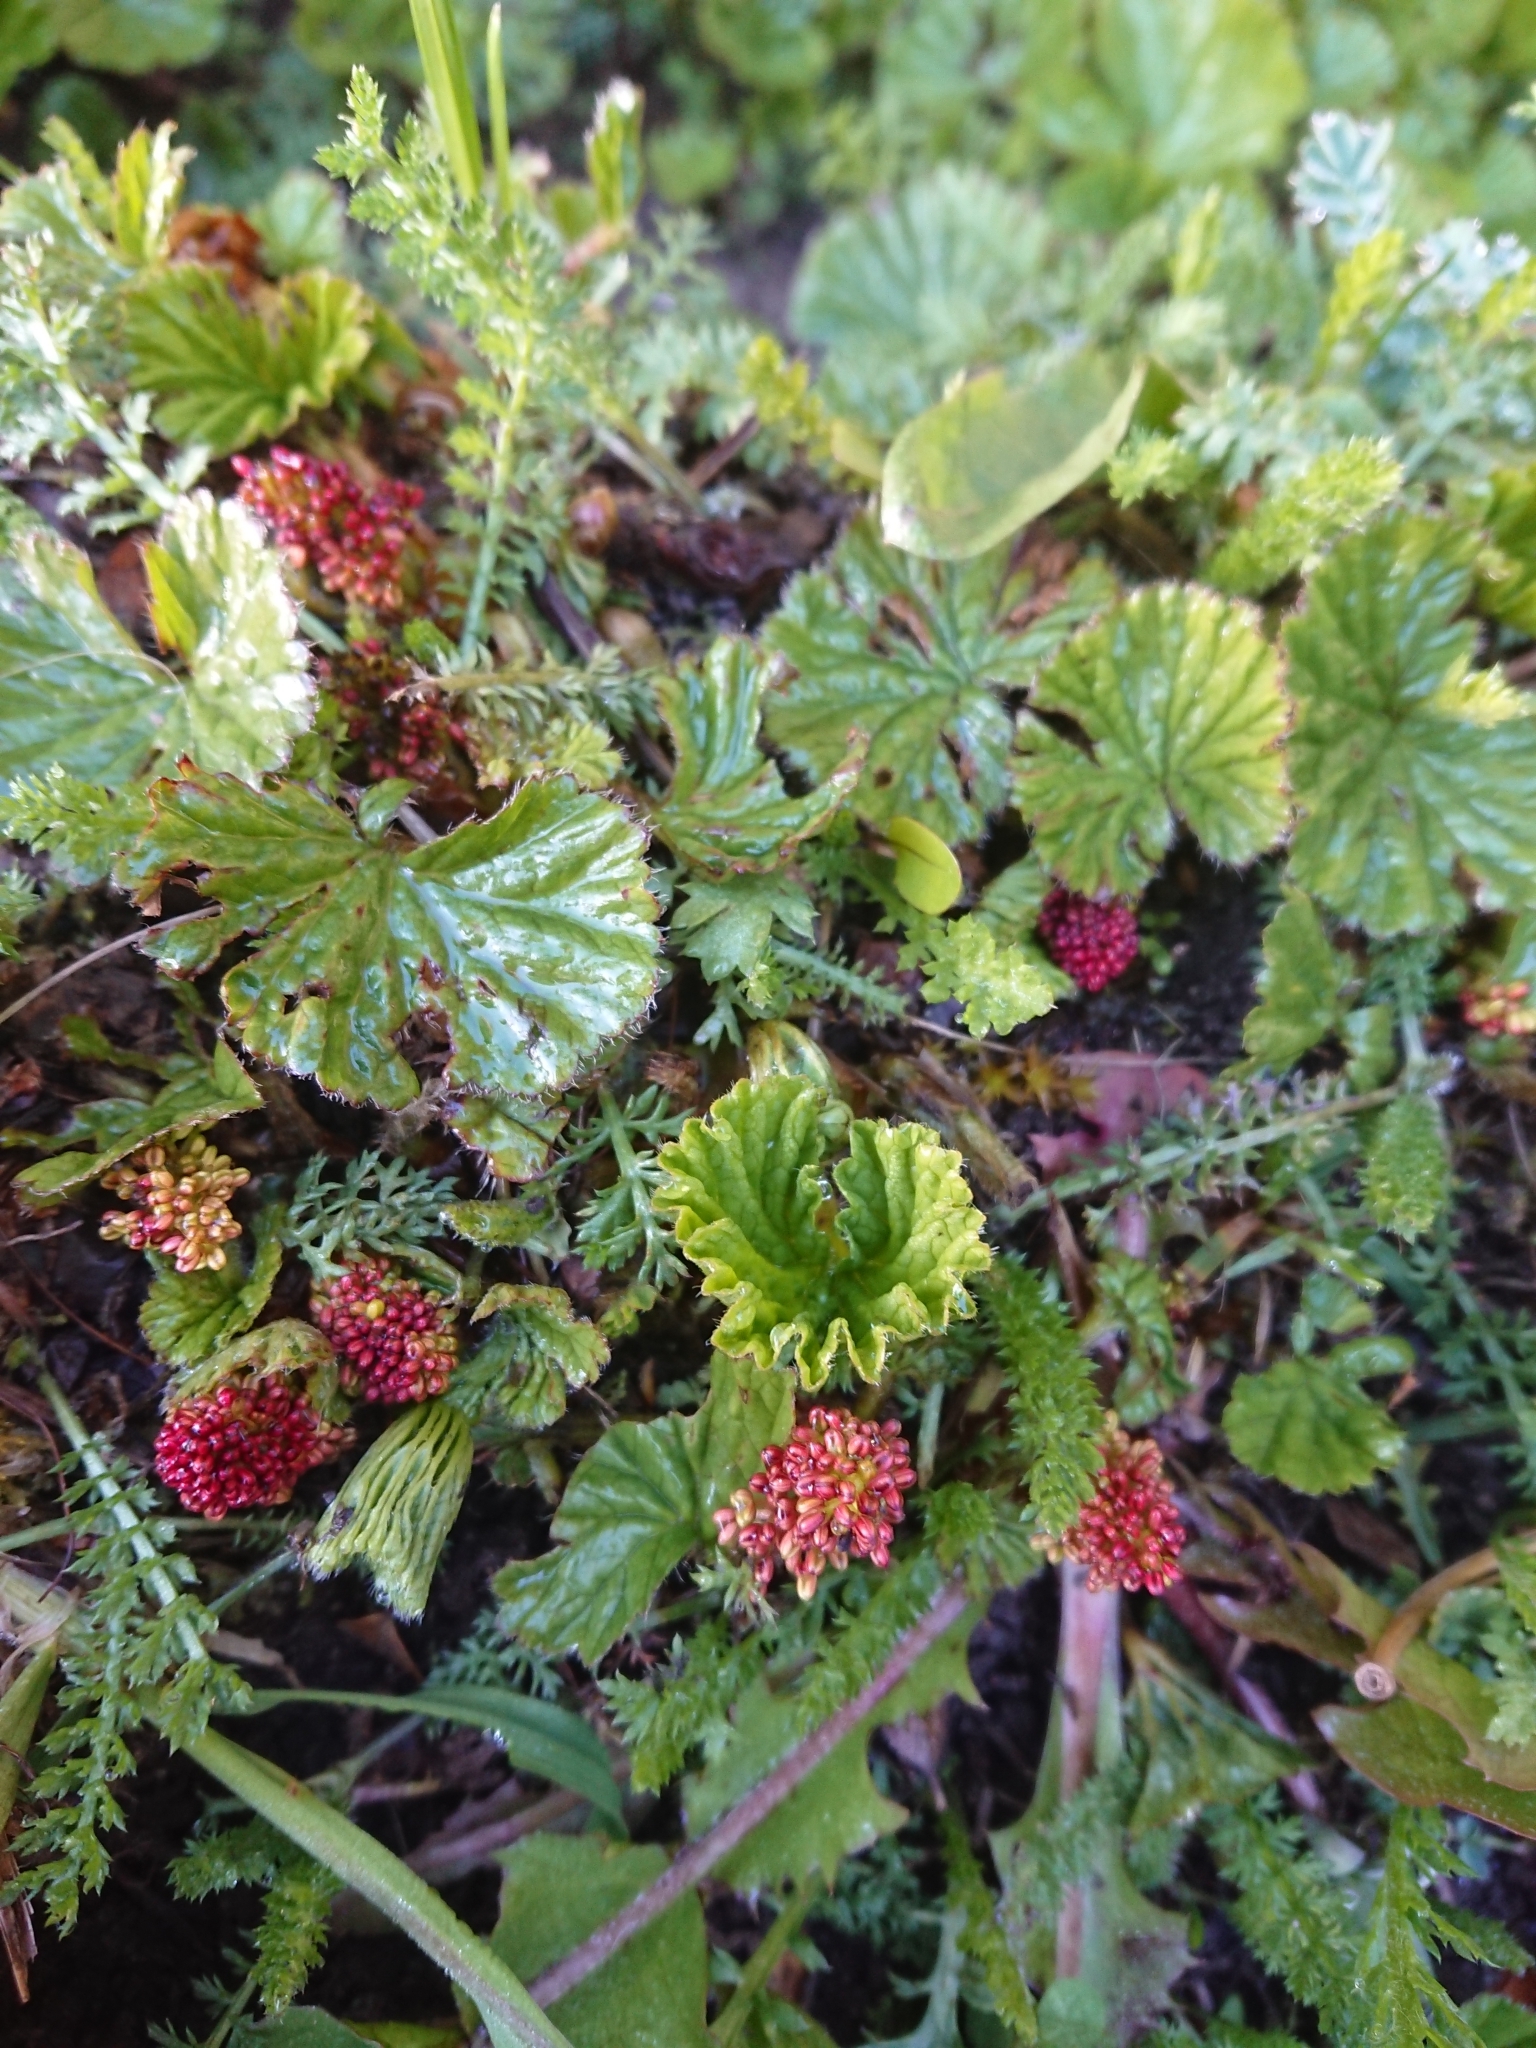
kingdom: Plantae
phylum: Tracheophyta
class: Magnoliopsida
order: Gunnerales
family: Gunneraceae
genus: Gunnera
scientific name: Gunnera magellanica
